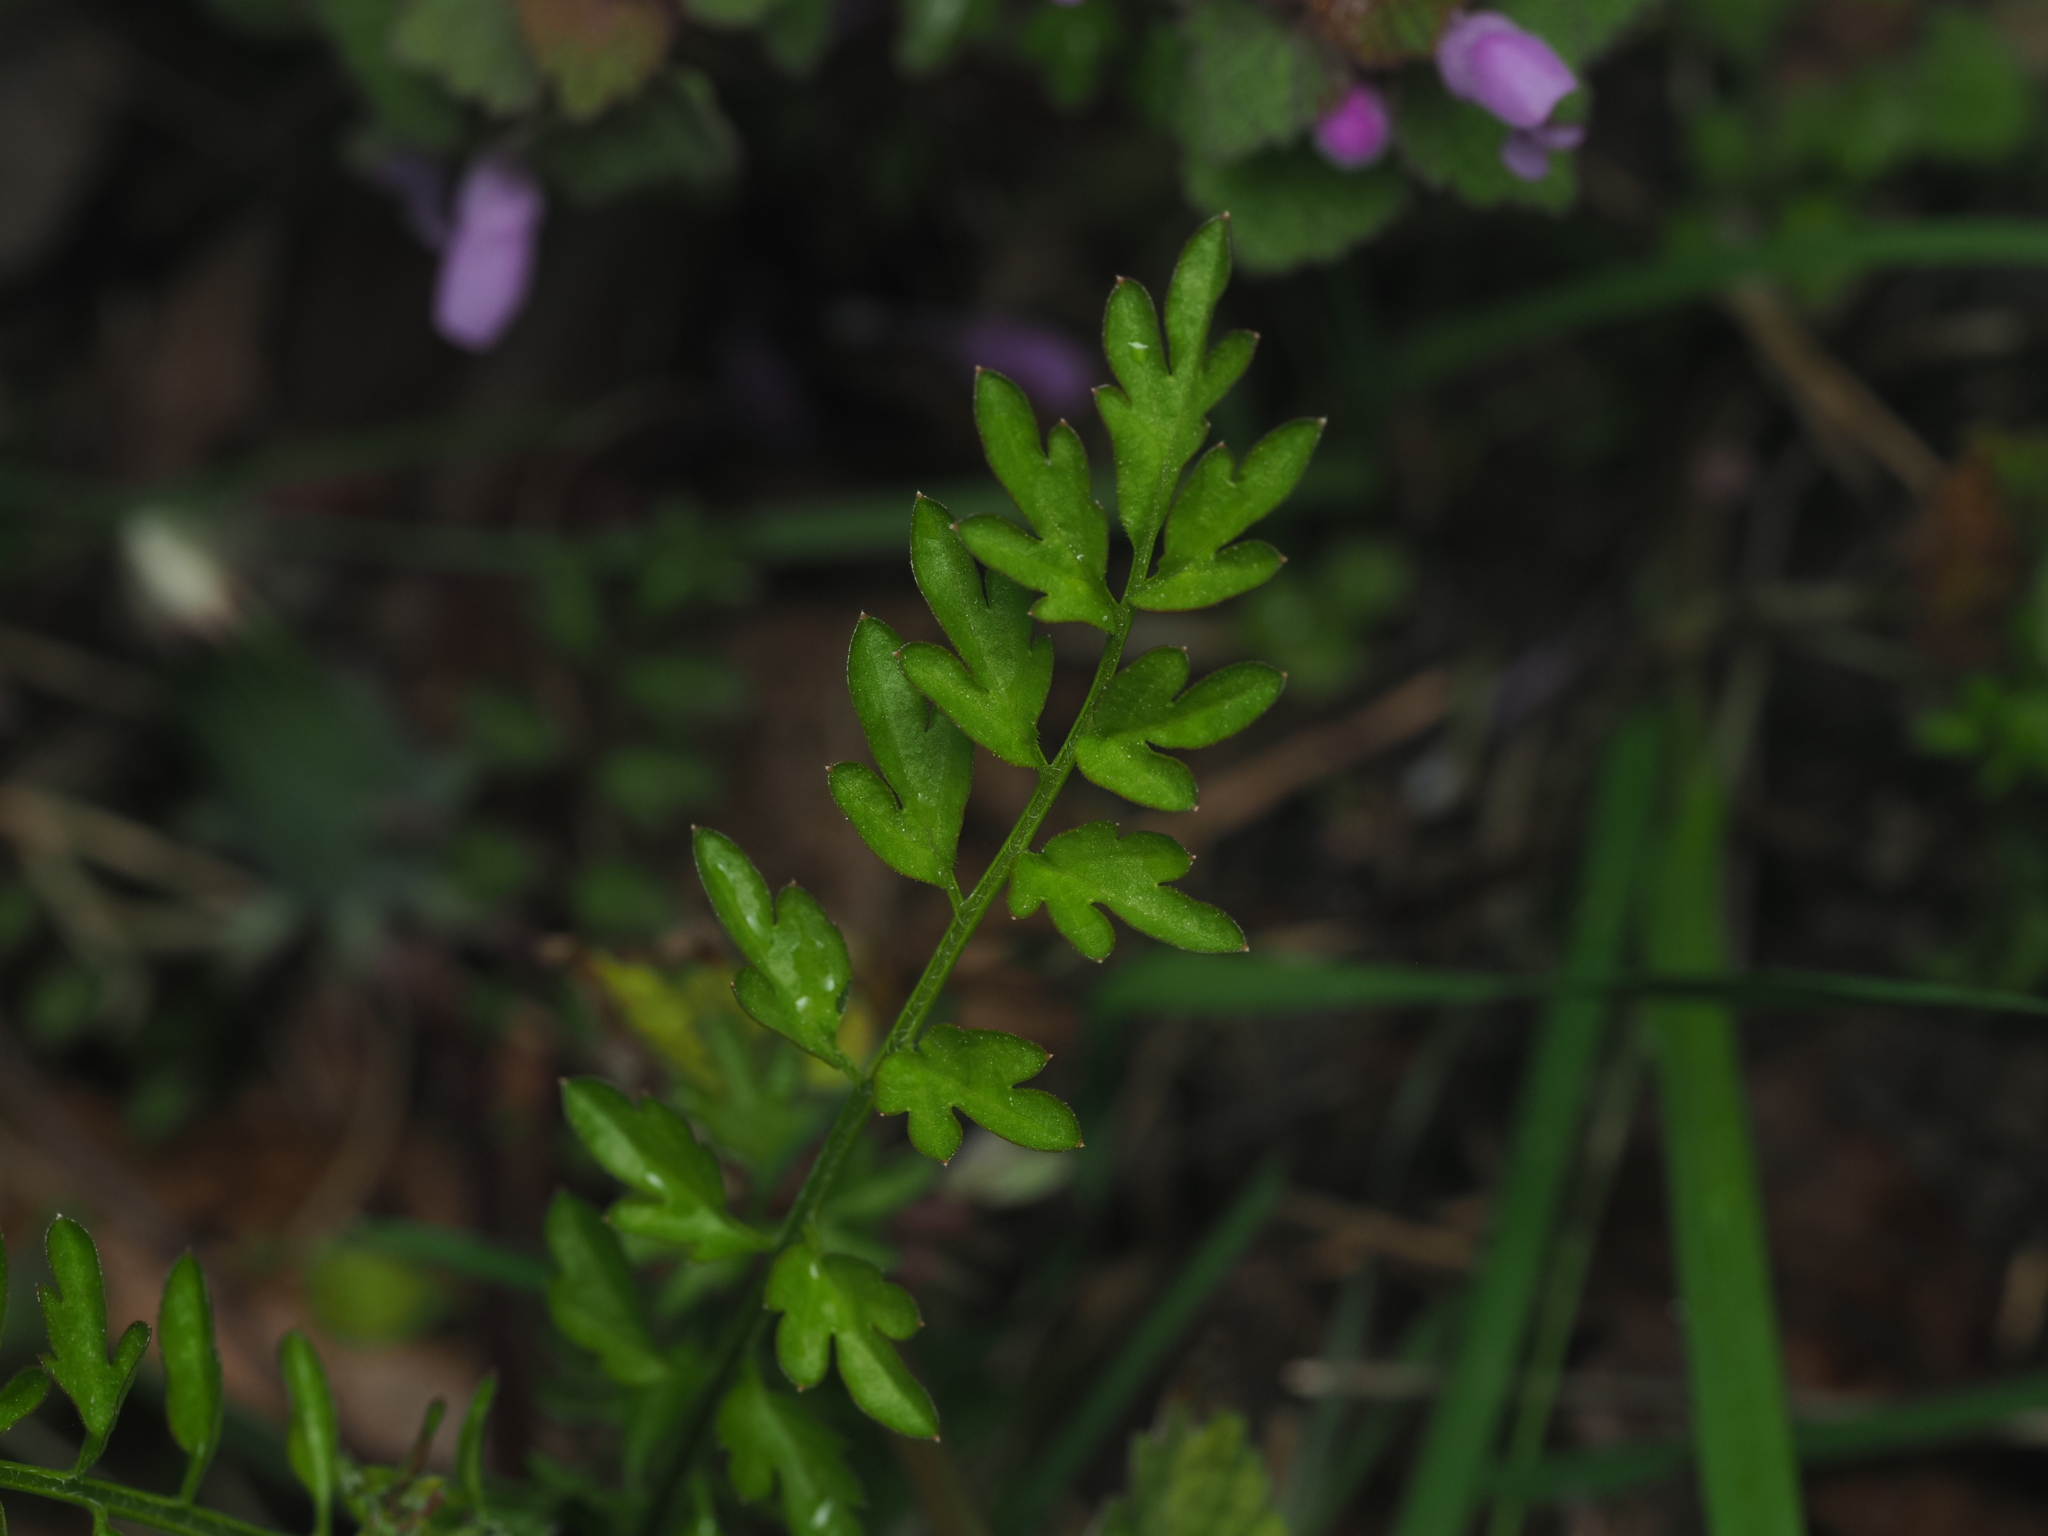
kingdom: Plantae
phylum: Tracheophyta
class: Magnoliopsida
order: Brassicales
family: Brassicaceae
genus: Cardamine
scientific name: Cardamine impatiens
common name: Narrow-leaved bitter-cress
